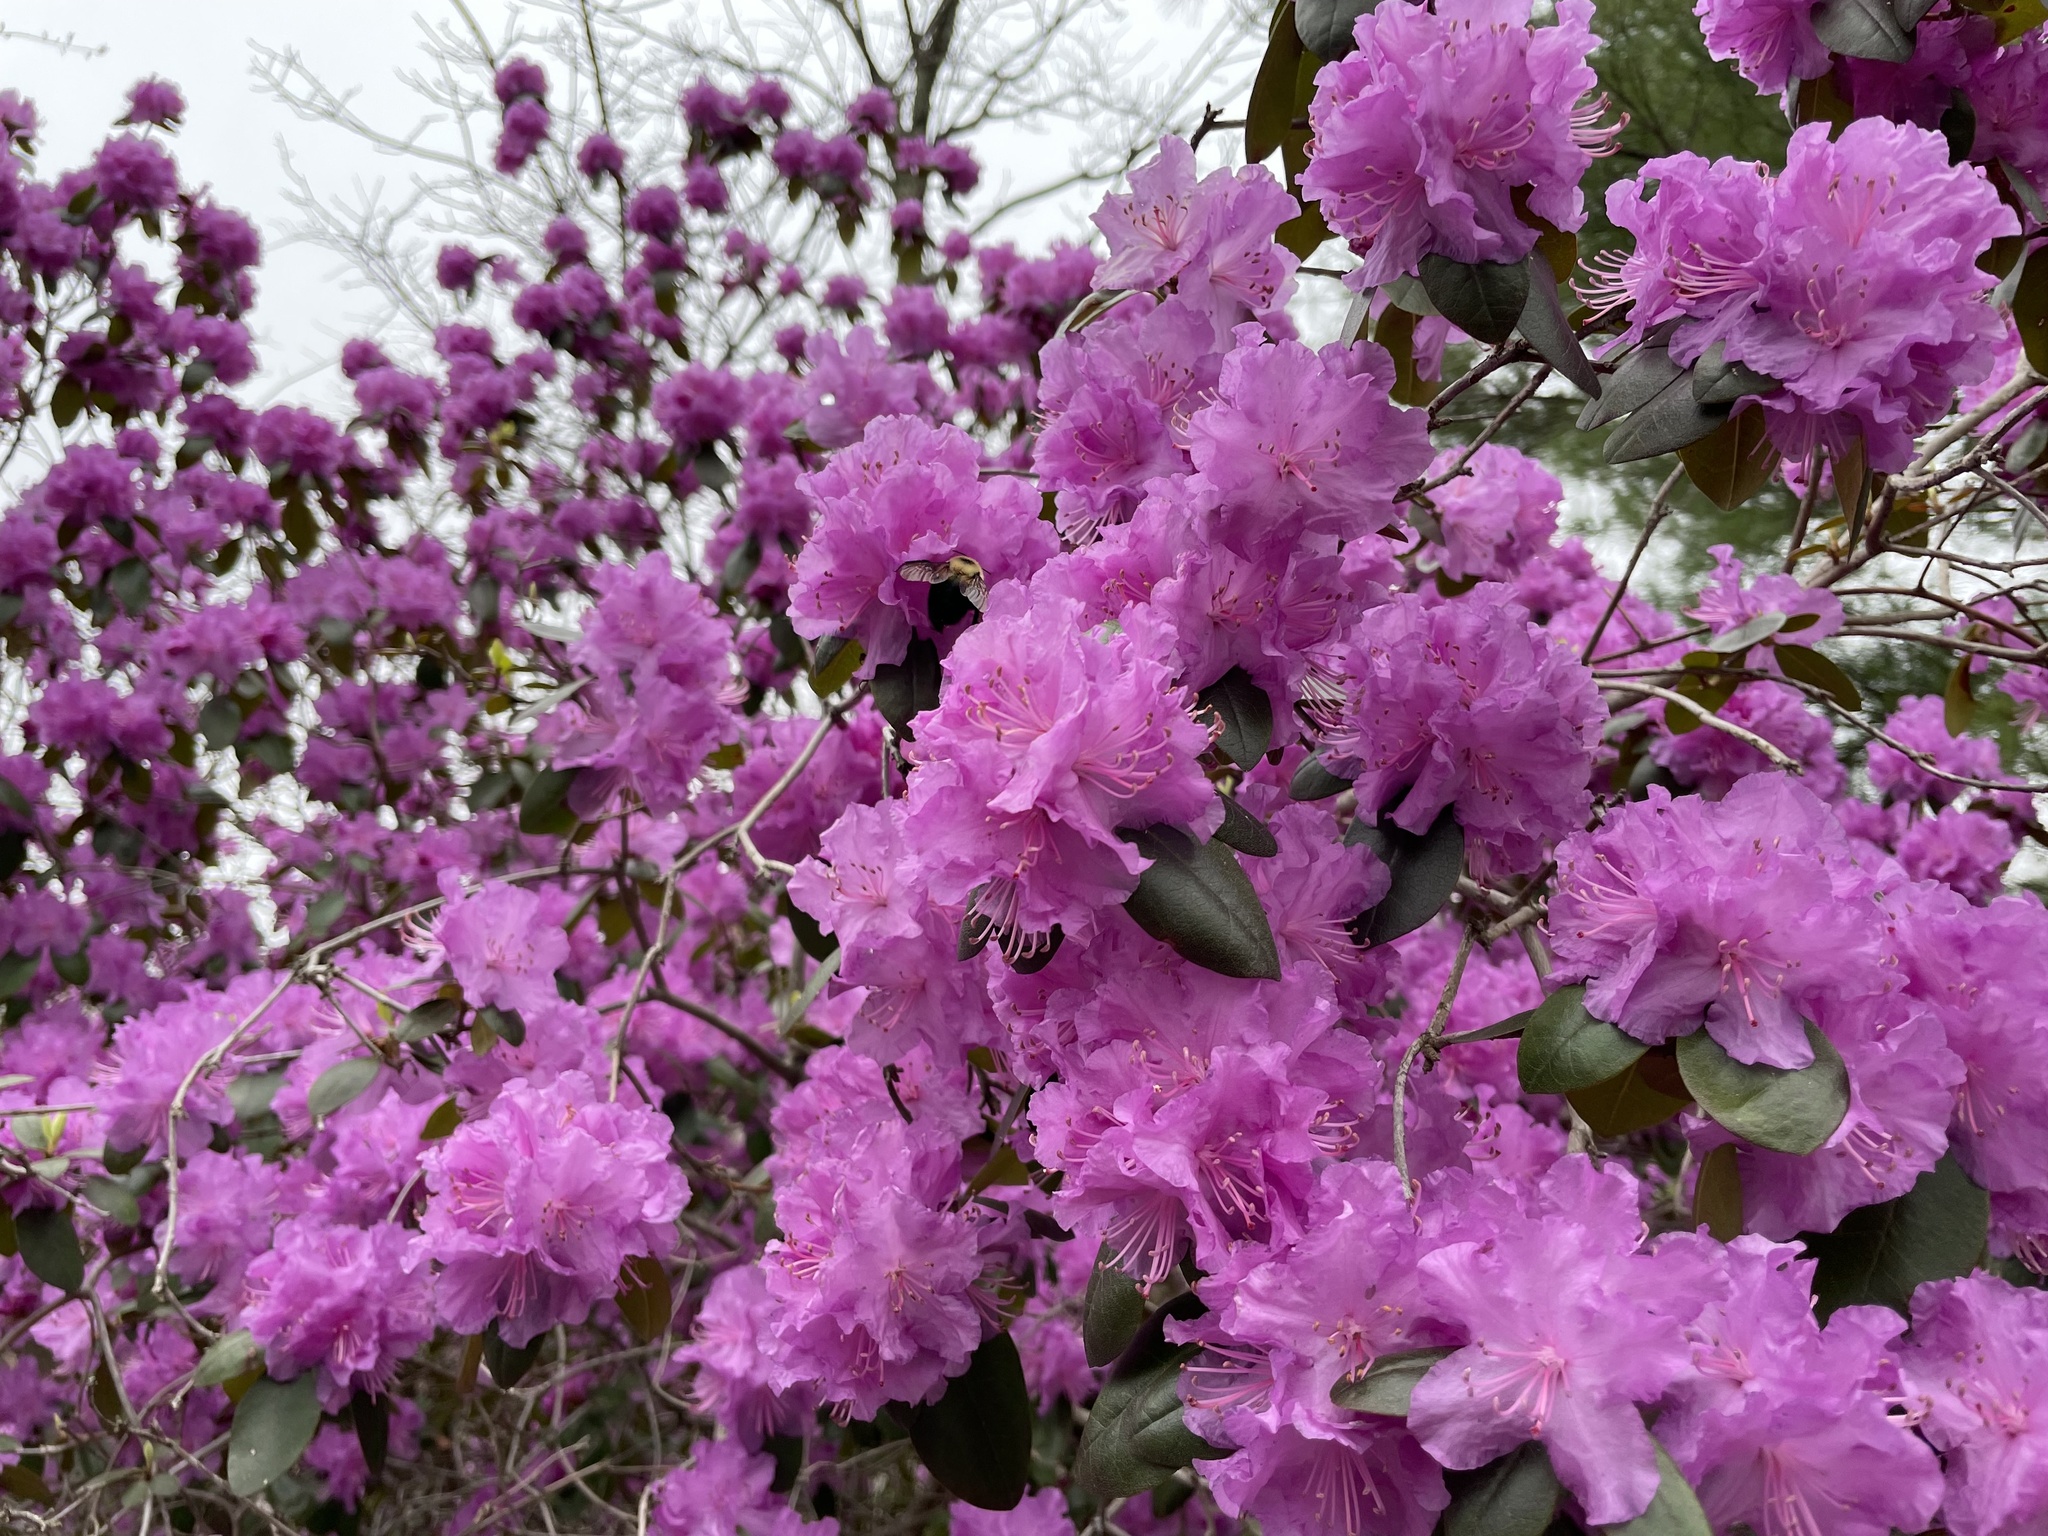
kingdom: Animalia
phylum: Arthropoda
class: Insecta
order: Hymenoptera
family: Apidae
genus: Bombus
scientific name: Bombus bimaculatus
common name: Two-spotted bumble bee
